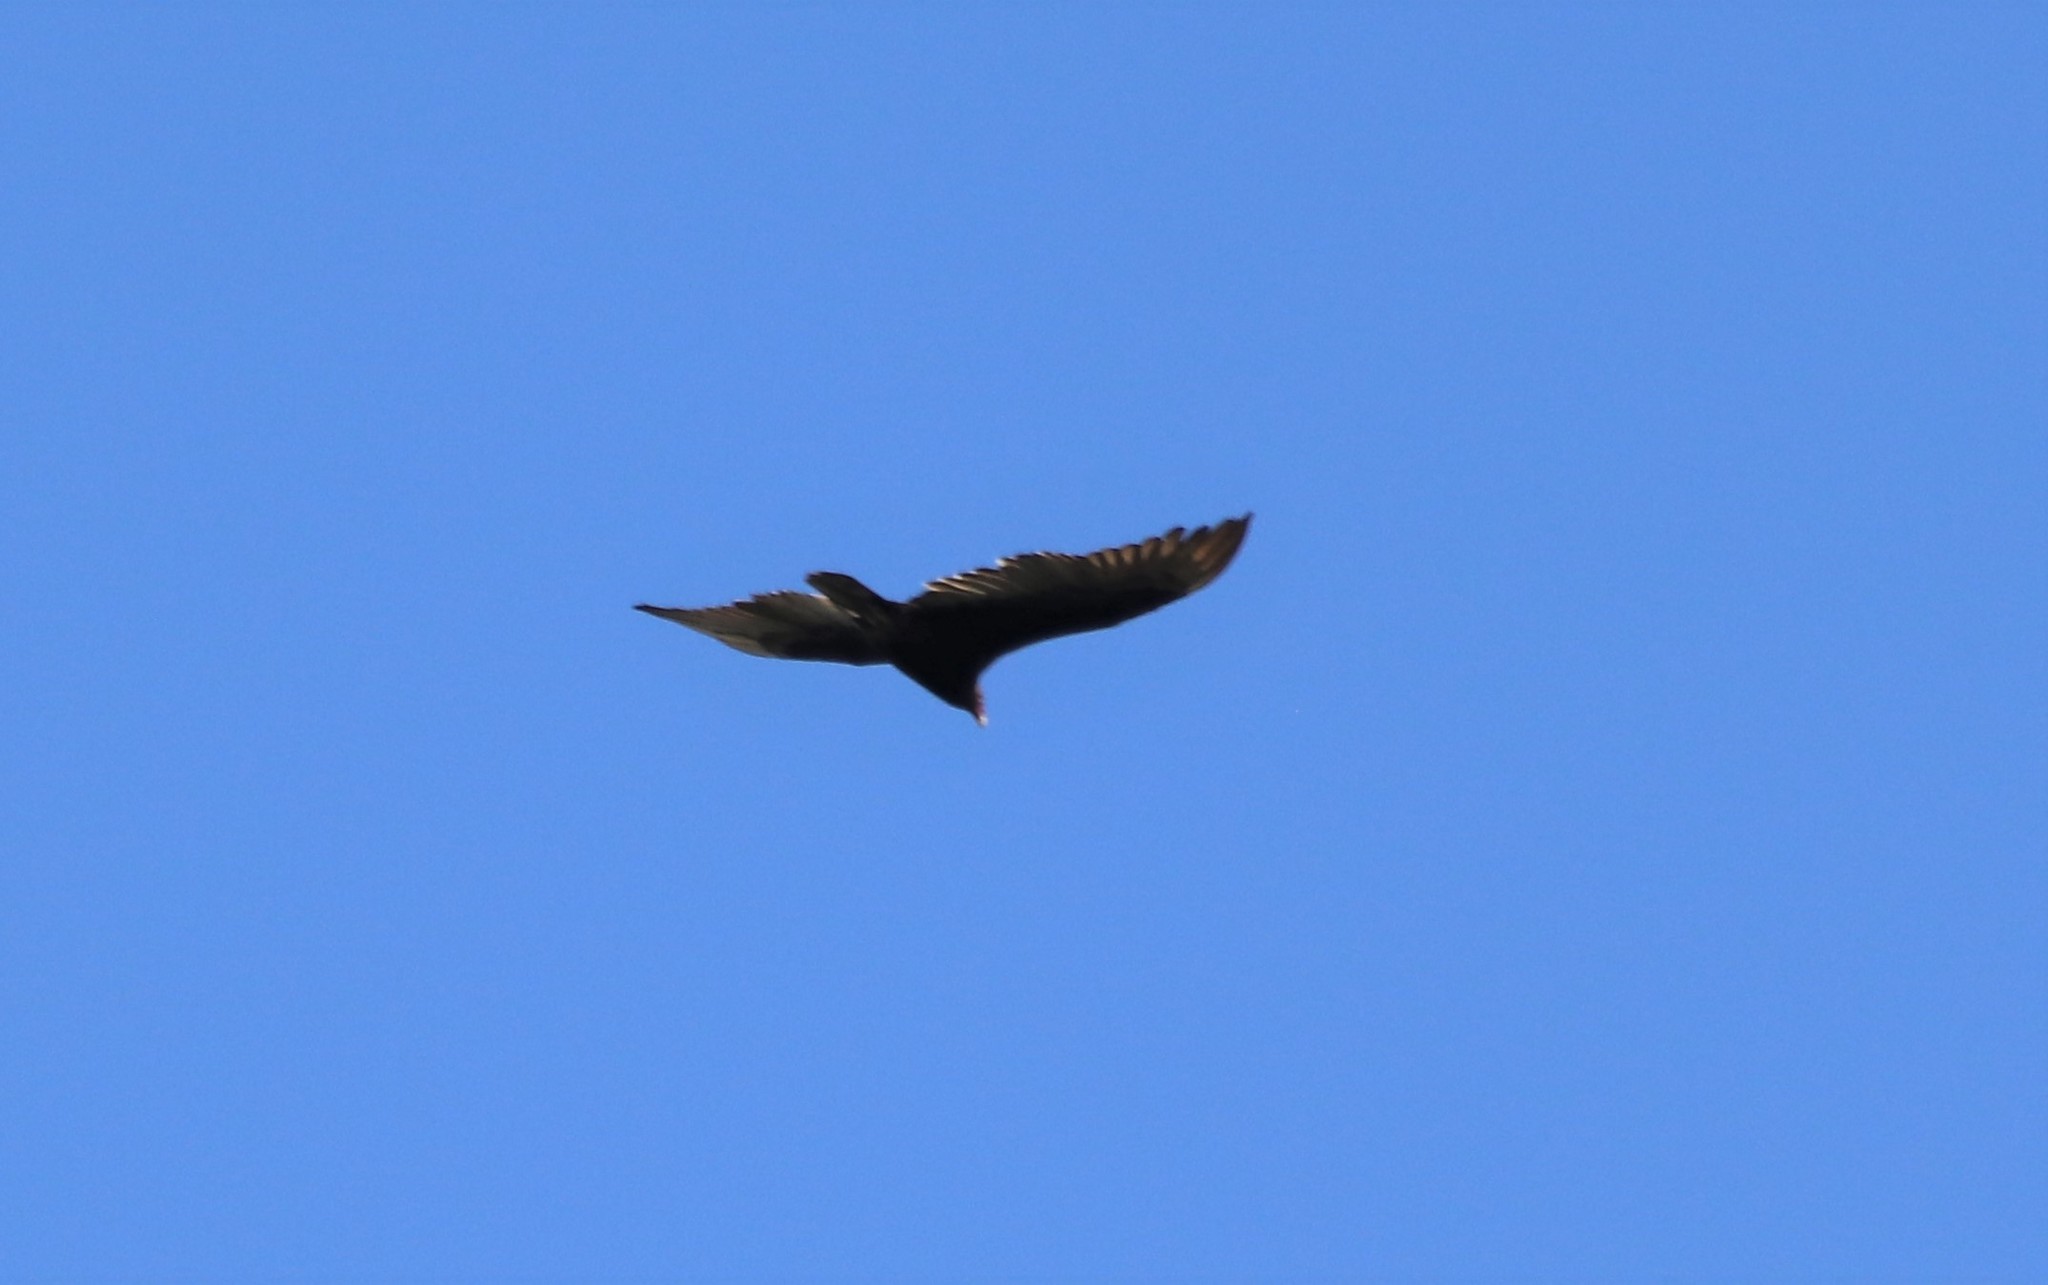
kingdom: Animalia
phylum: Chordata
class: Aves
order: Accipitriformes
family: Cathartidae
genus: Cathartes
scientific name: Cathartes aura
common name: Turkey vulture
